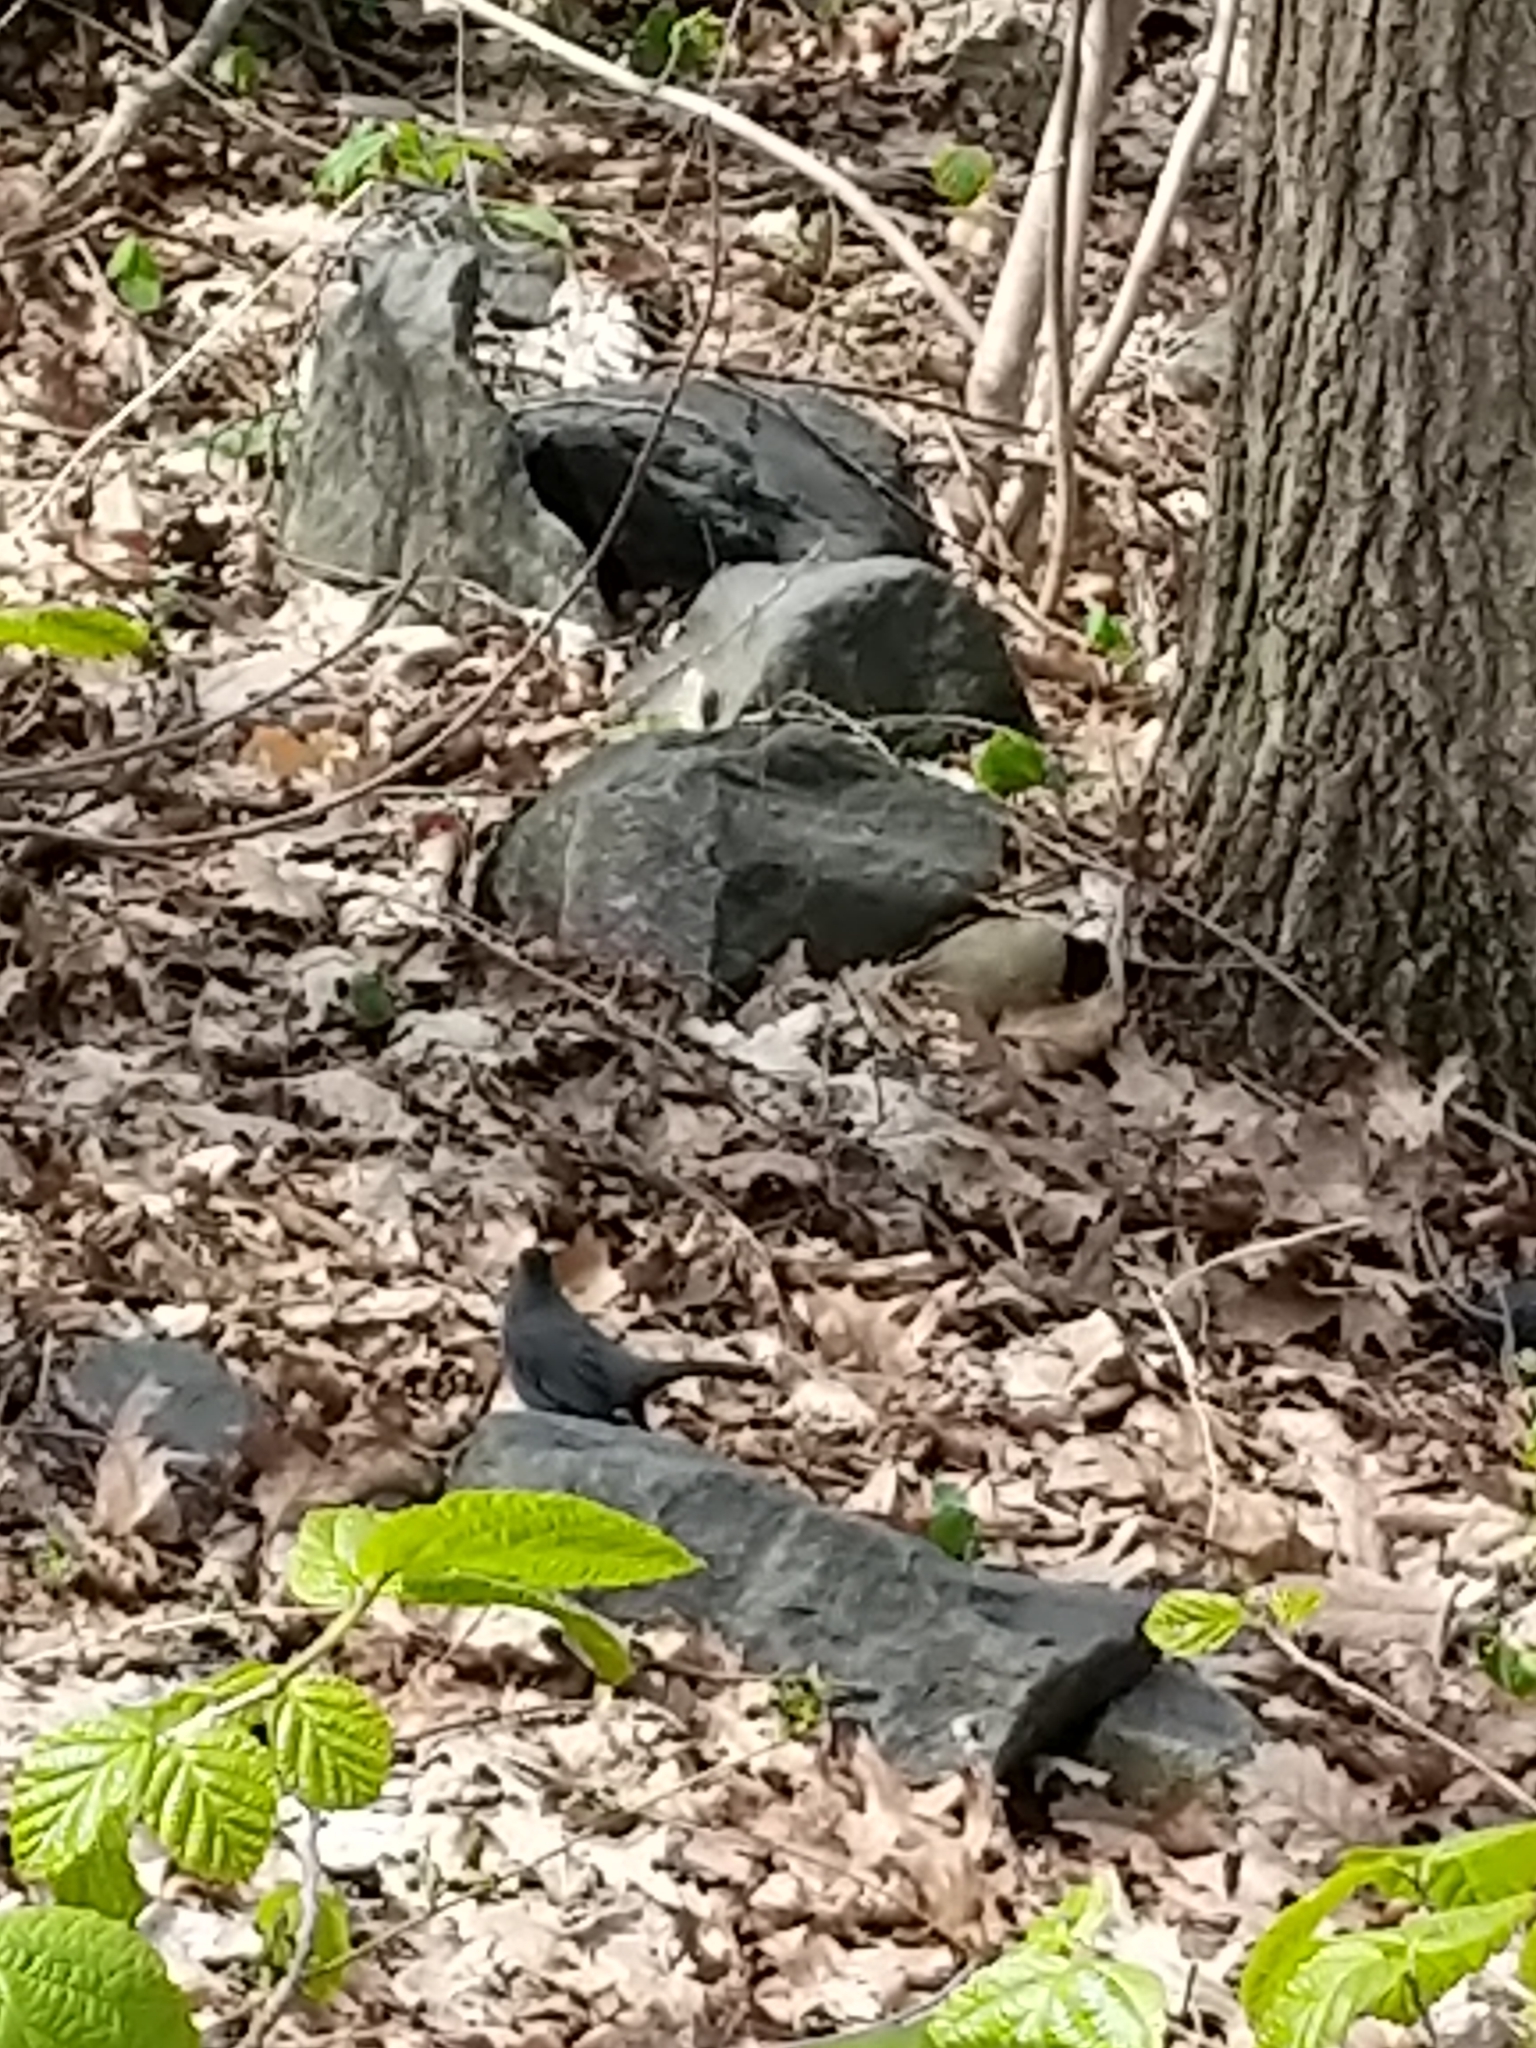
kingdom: Animalia
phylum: Chordata
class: Aves
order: Passeriformes
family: Mimidae
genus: Dumetella
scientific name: Dumetella carolinensis
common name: Gray catbird
